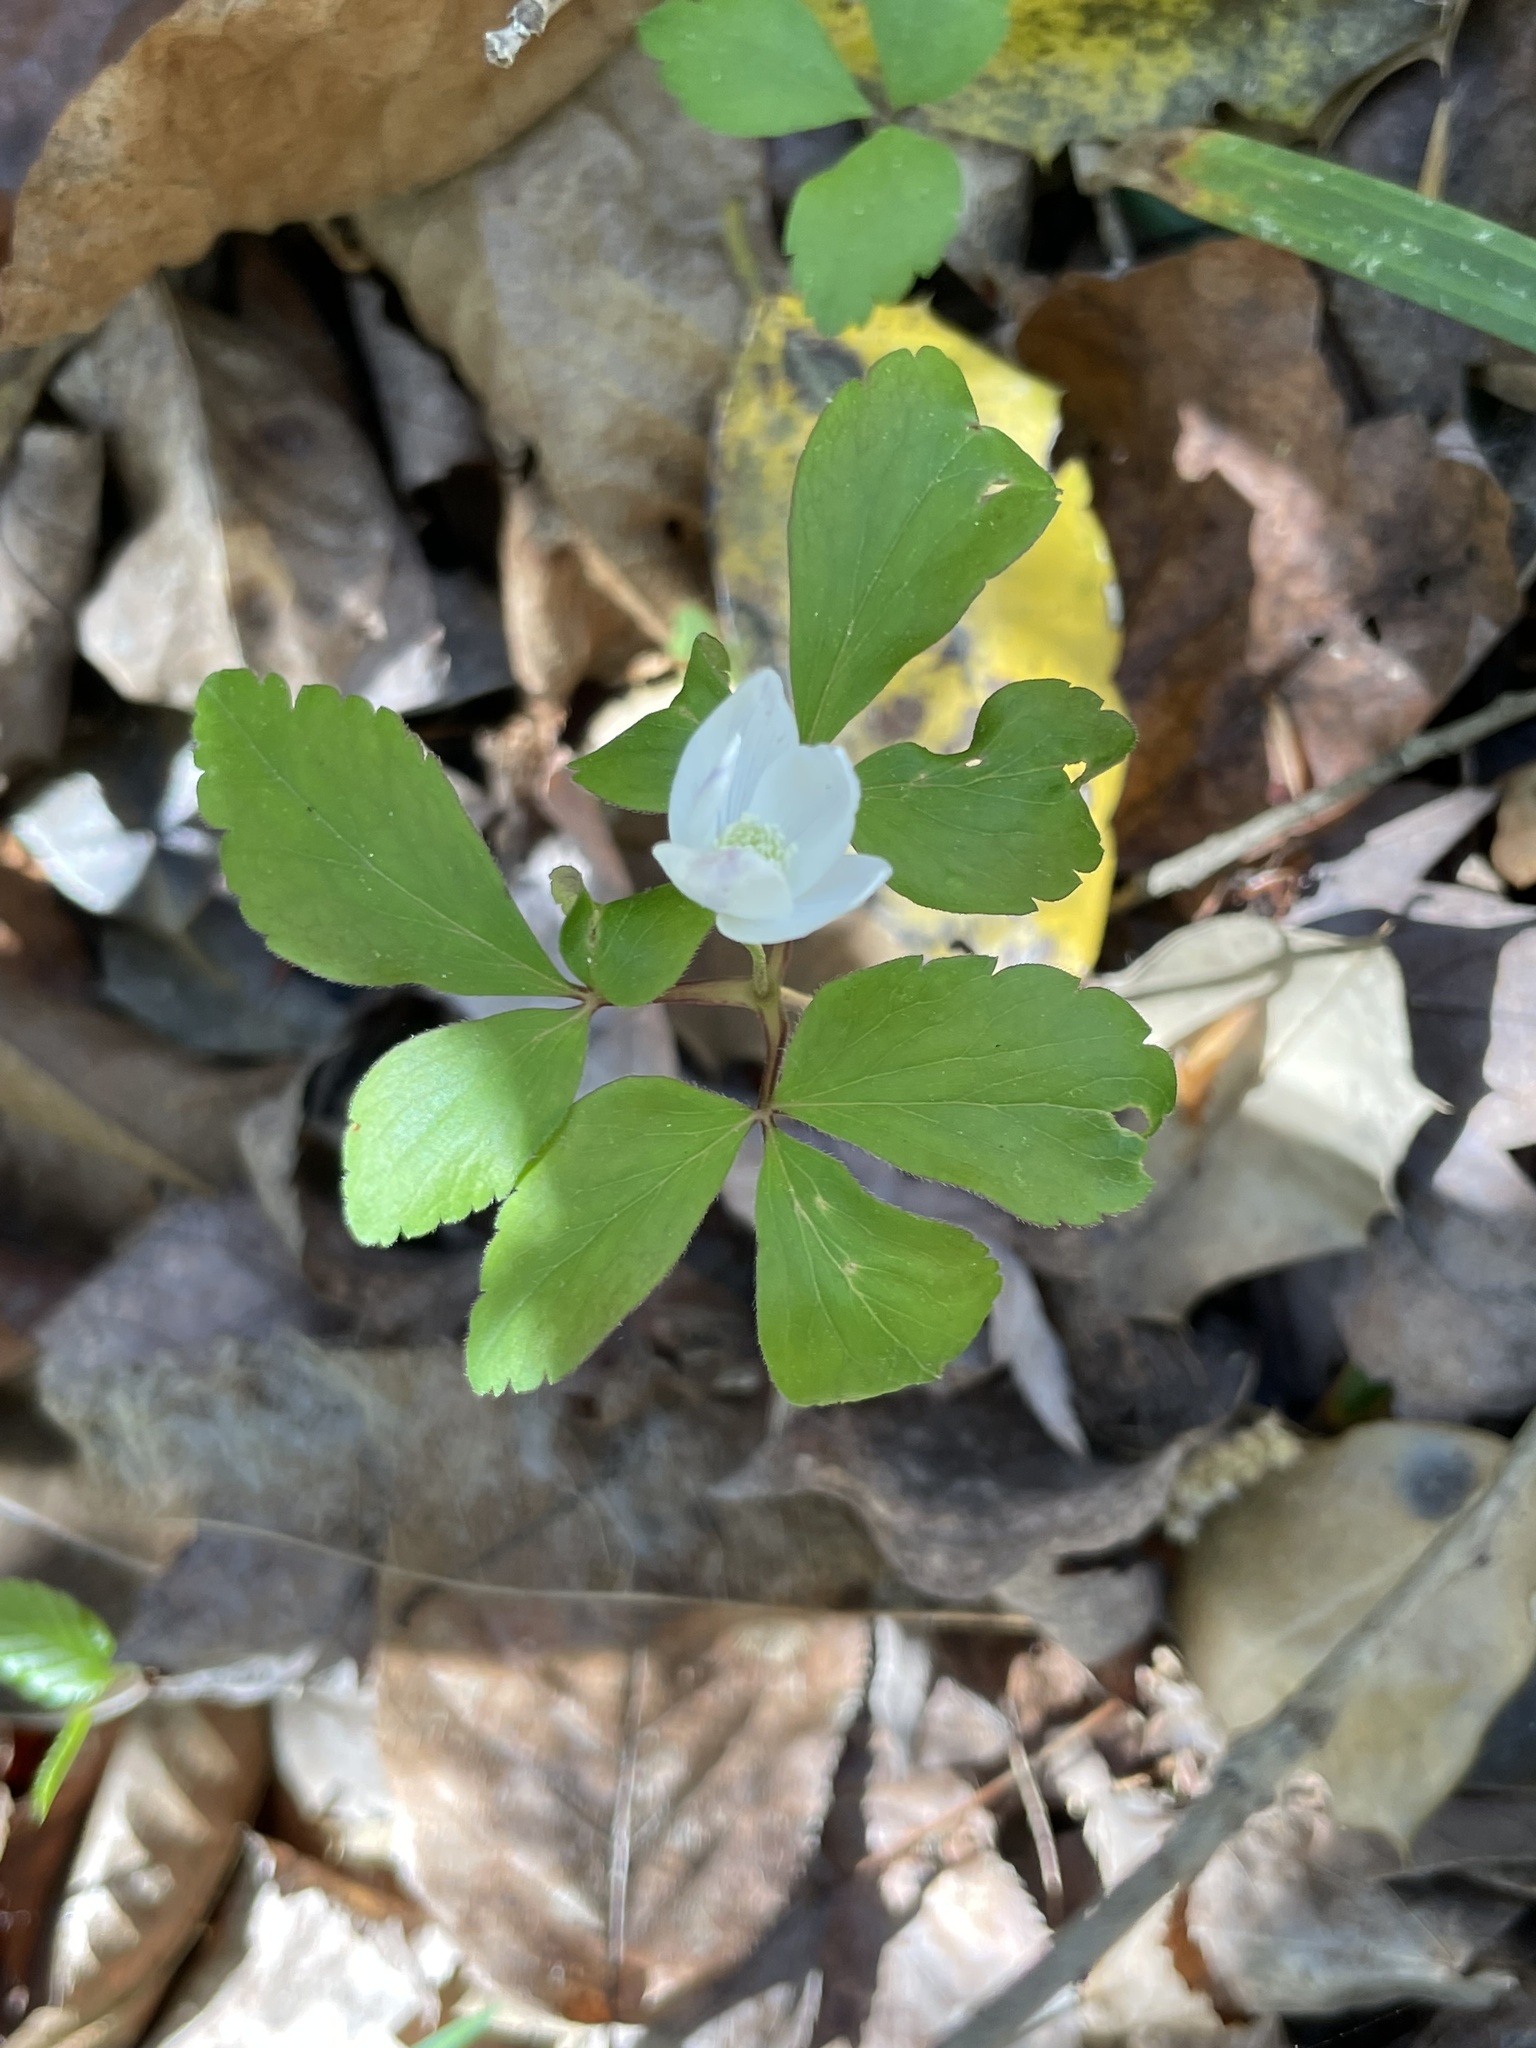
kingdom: Plantae
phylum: Tracheophyta
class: Magnoliopsida
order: Ranunculales
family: Ranunculaceae
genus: Anemone
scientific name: Anemone quinquefolia
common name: Wood anemone
